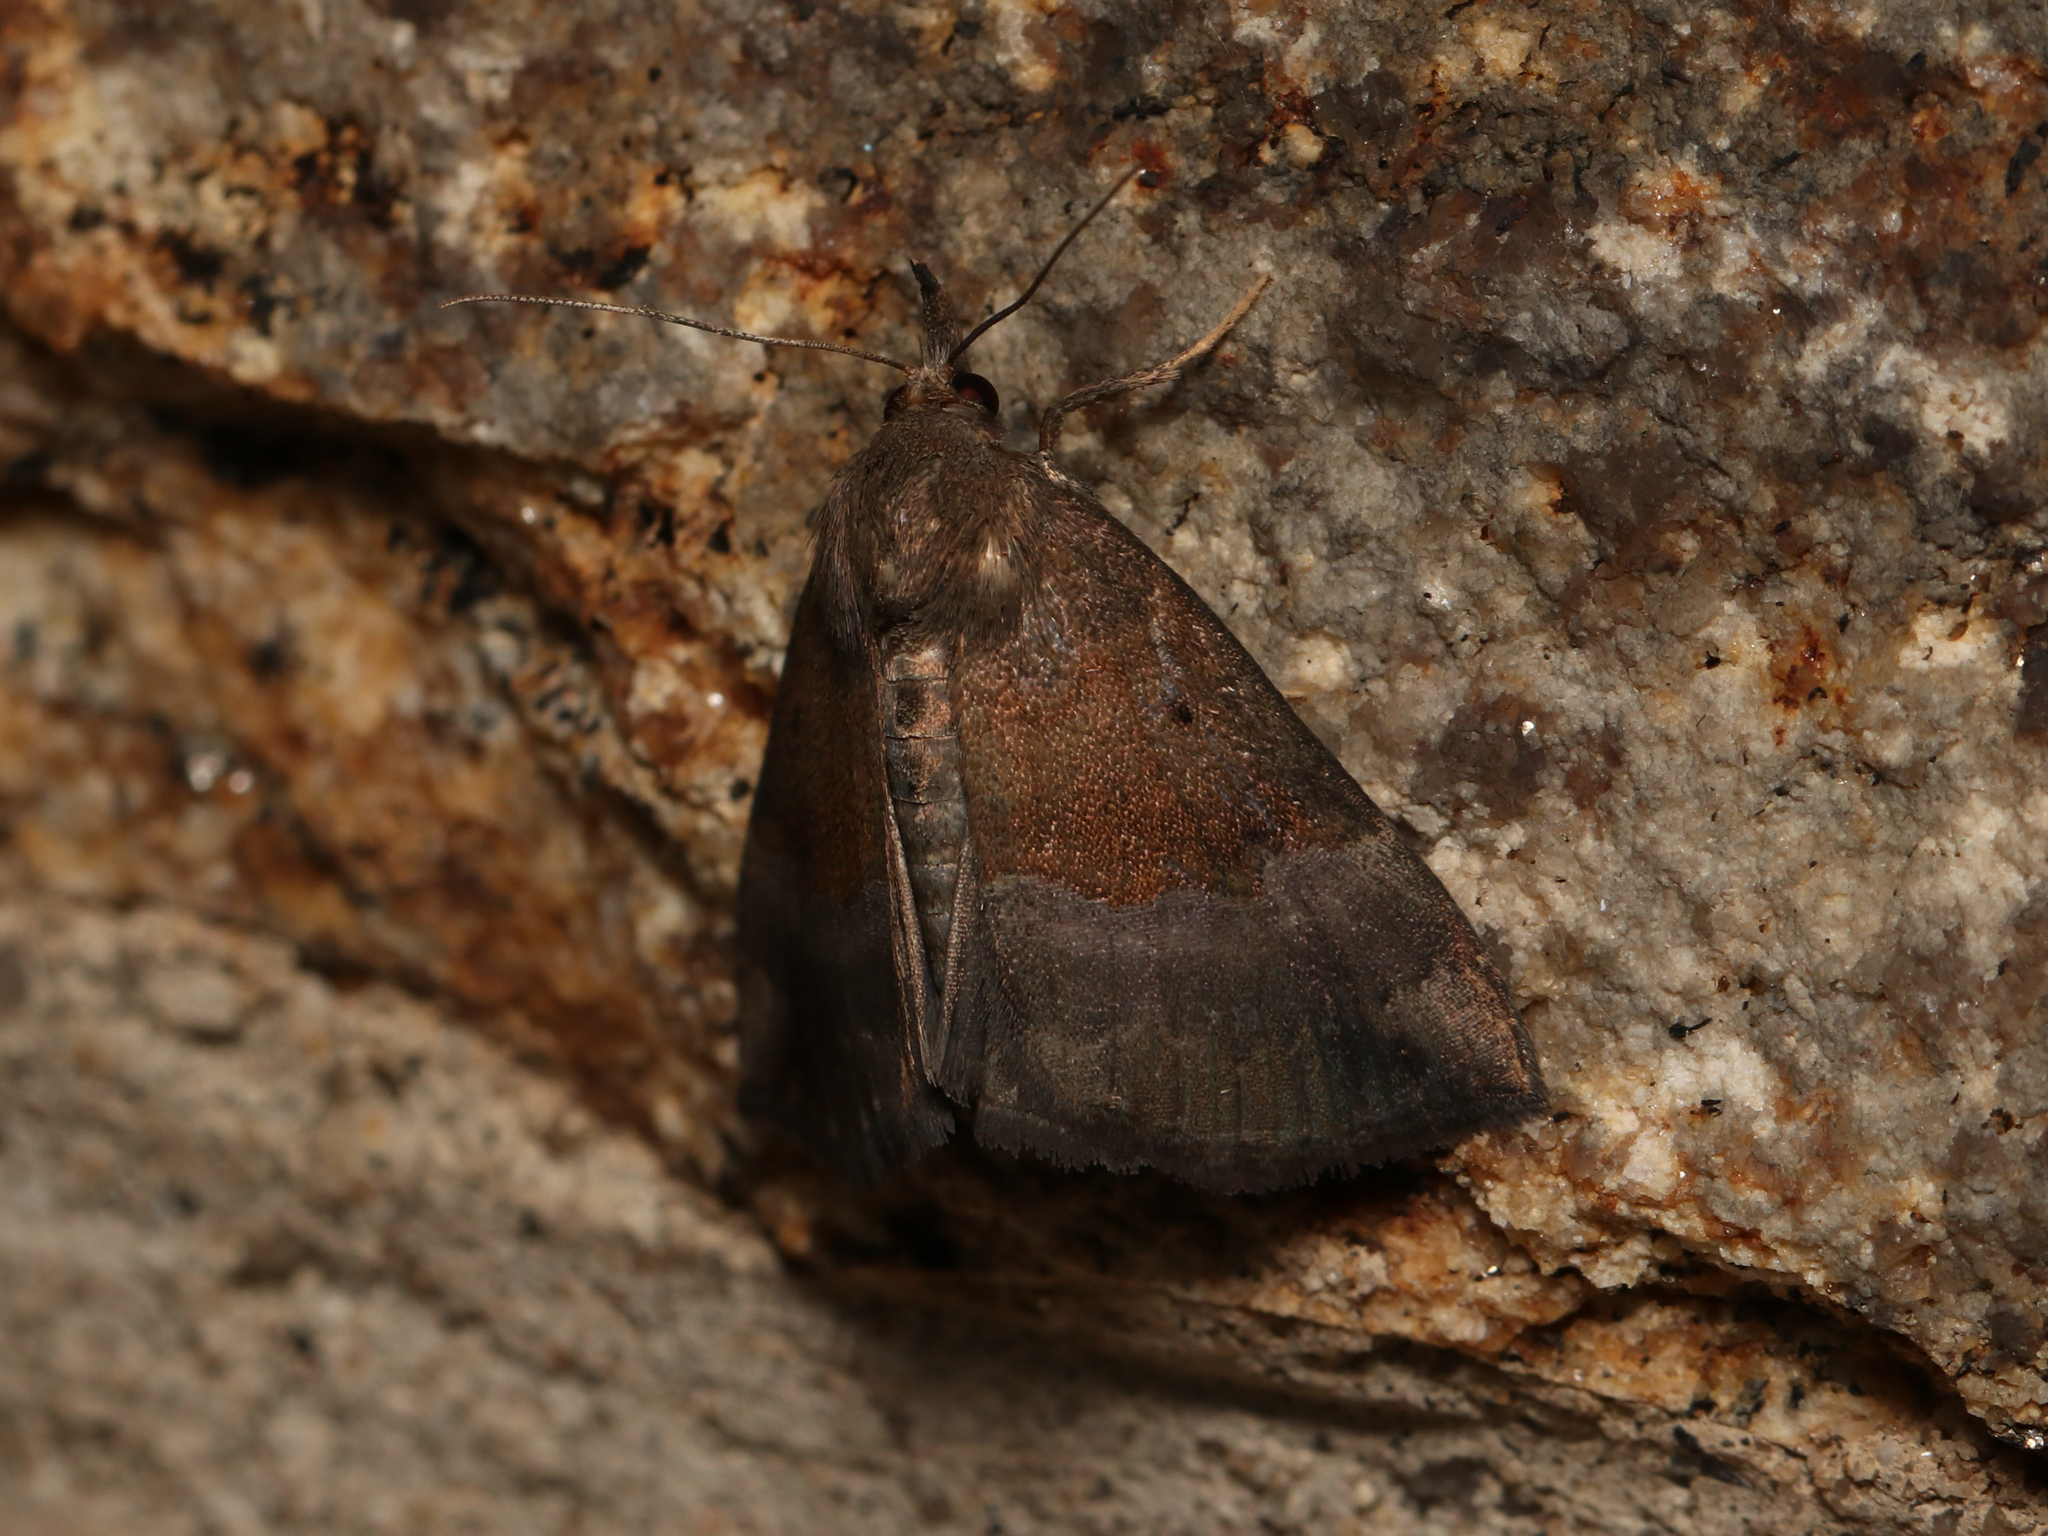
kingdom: Animalia
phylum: Arthropoda
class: Insecta
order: Lepidoptera
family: Erebidae
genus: Hypena
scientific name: Hypena madefactalis
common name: Gray-edged snout
